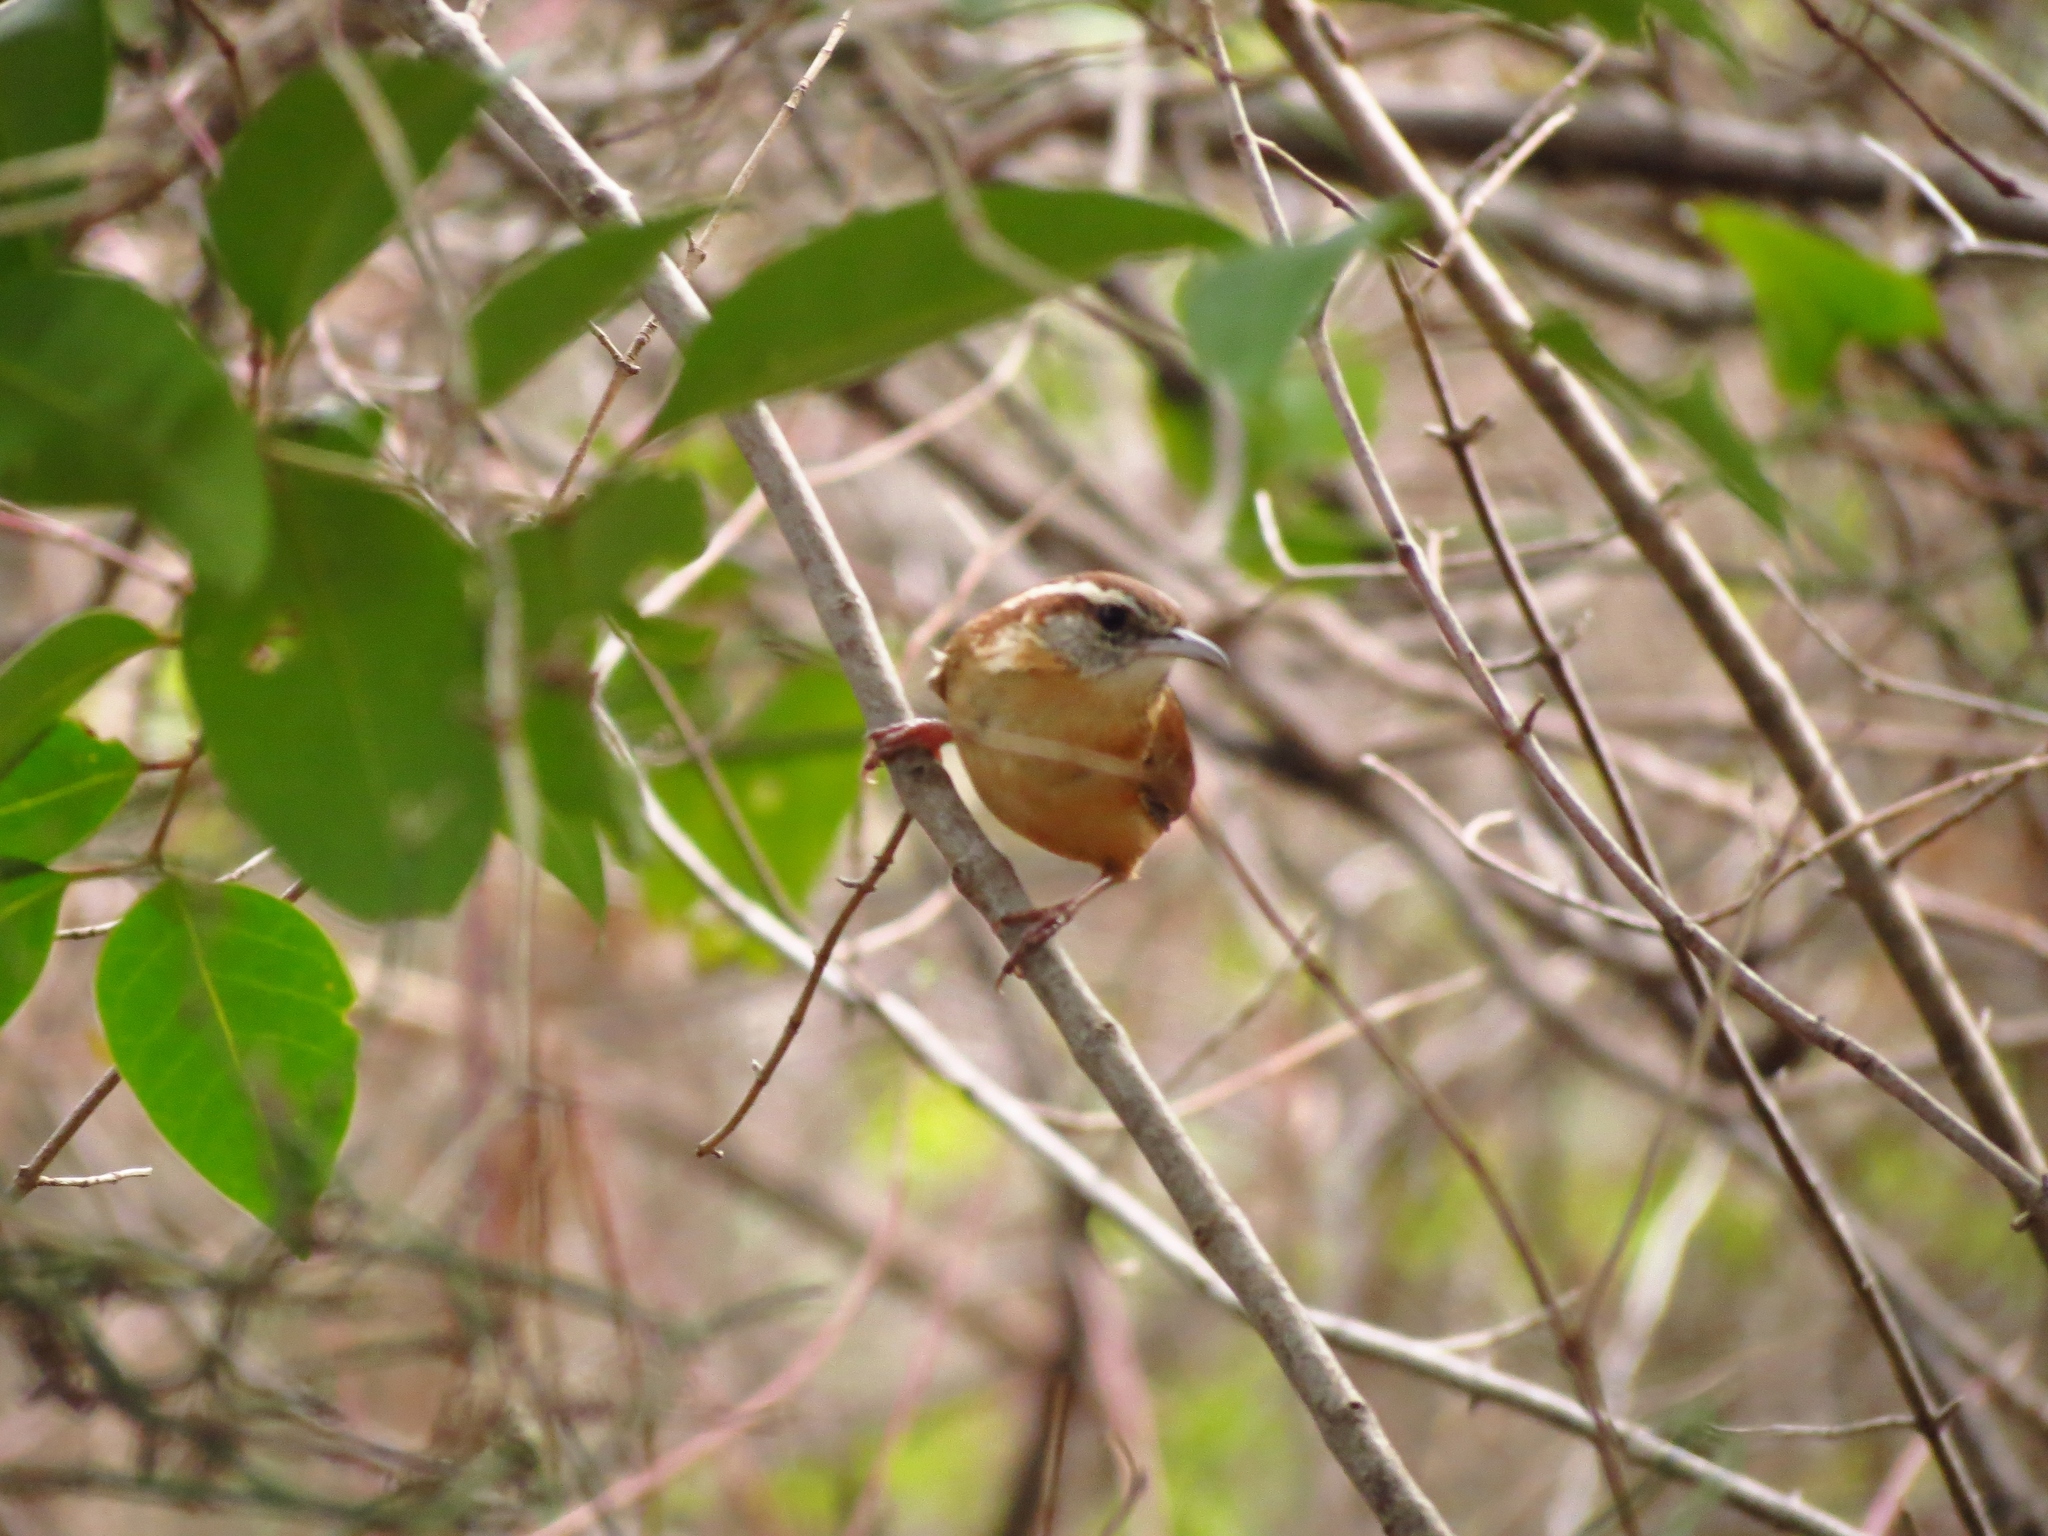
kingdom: Animalia
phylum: Chordata
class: Aves
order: Passeriformes
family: Troglodytidae
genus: Thryothorus
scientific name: Thryothorus ludovicianus
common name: Carolina wren
